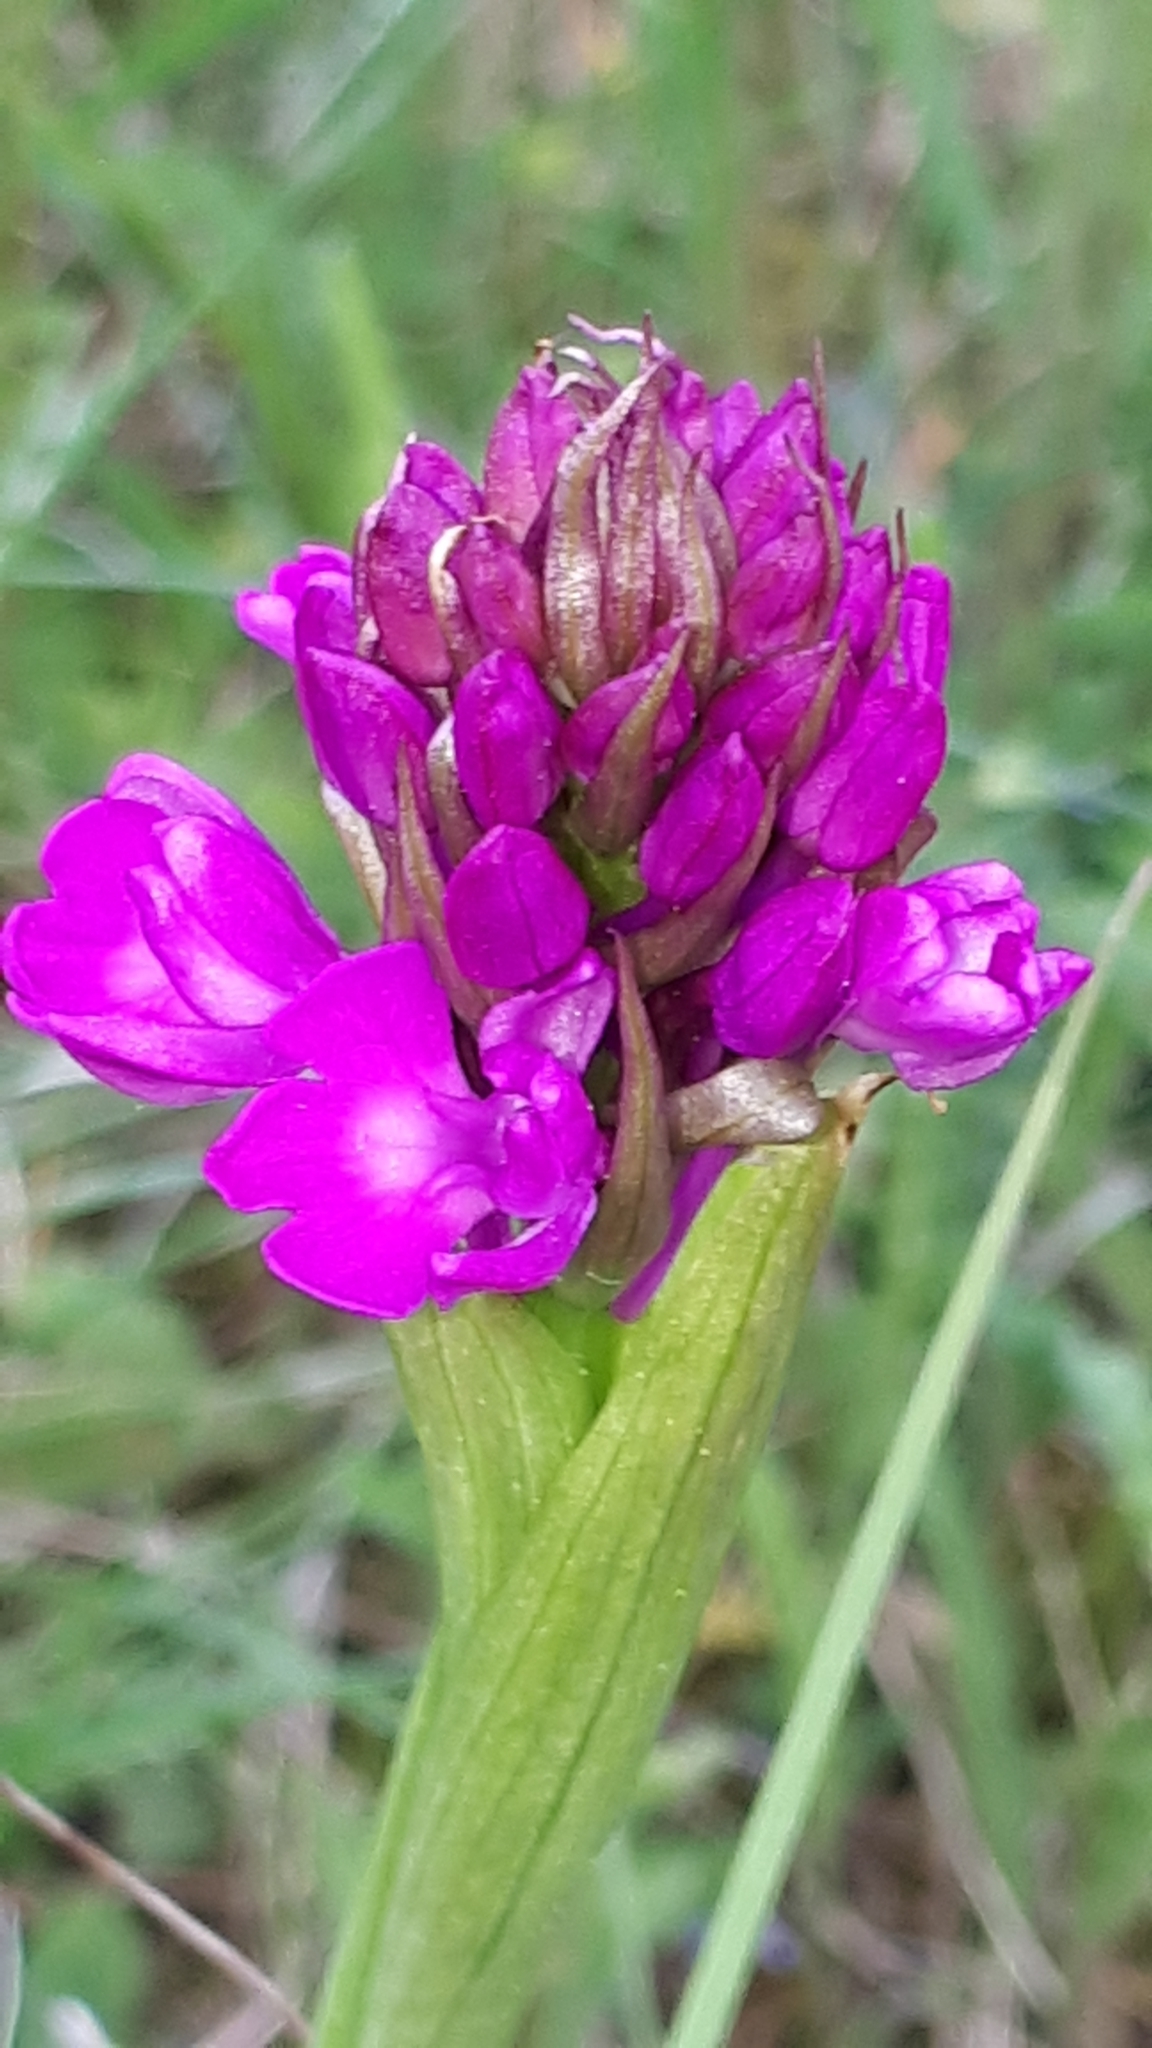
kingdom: Plantae
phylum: Tracheophyta
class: Liliopsida
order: Asparagales
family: Orchidaceae
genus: Anacamptis
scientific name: Anacamptis pyramidalis
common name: Pyramidal orchid
